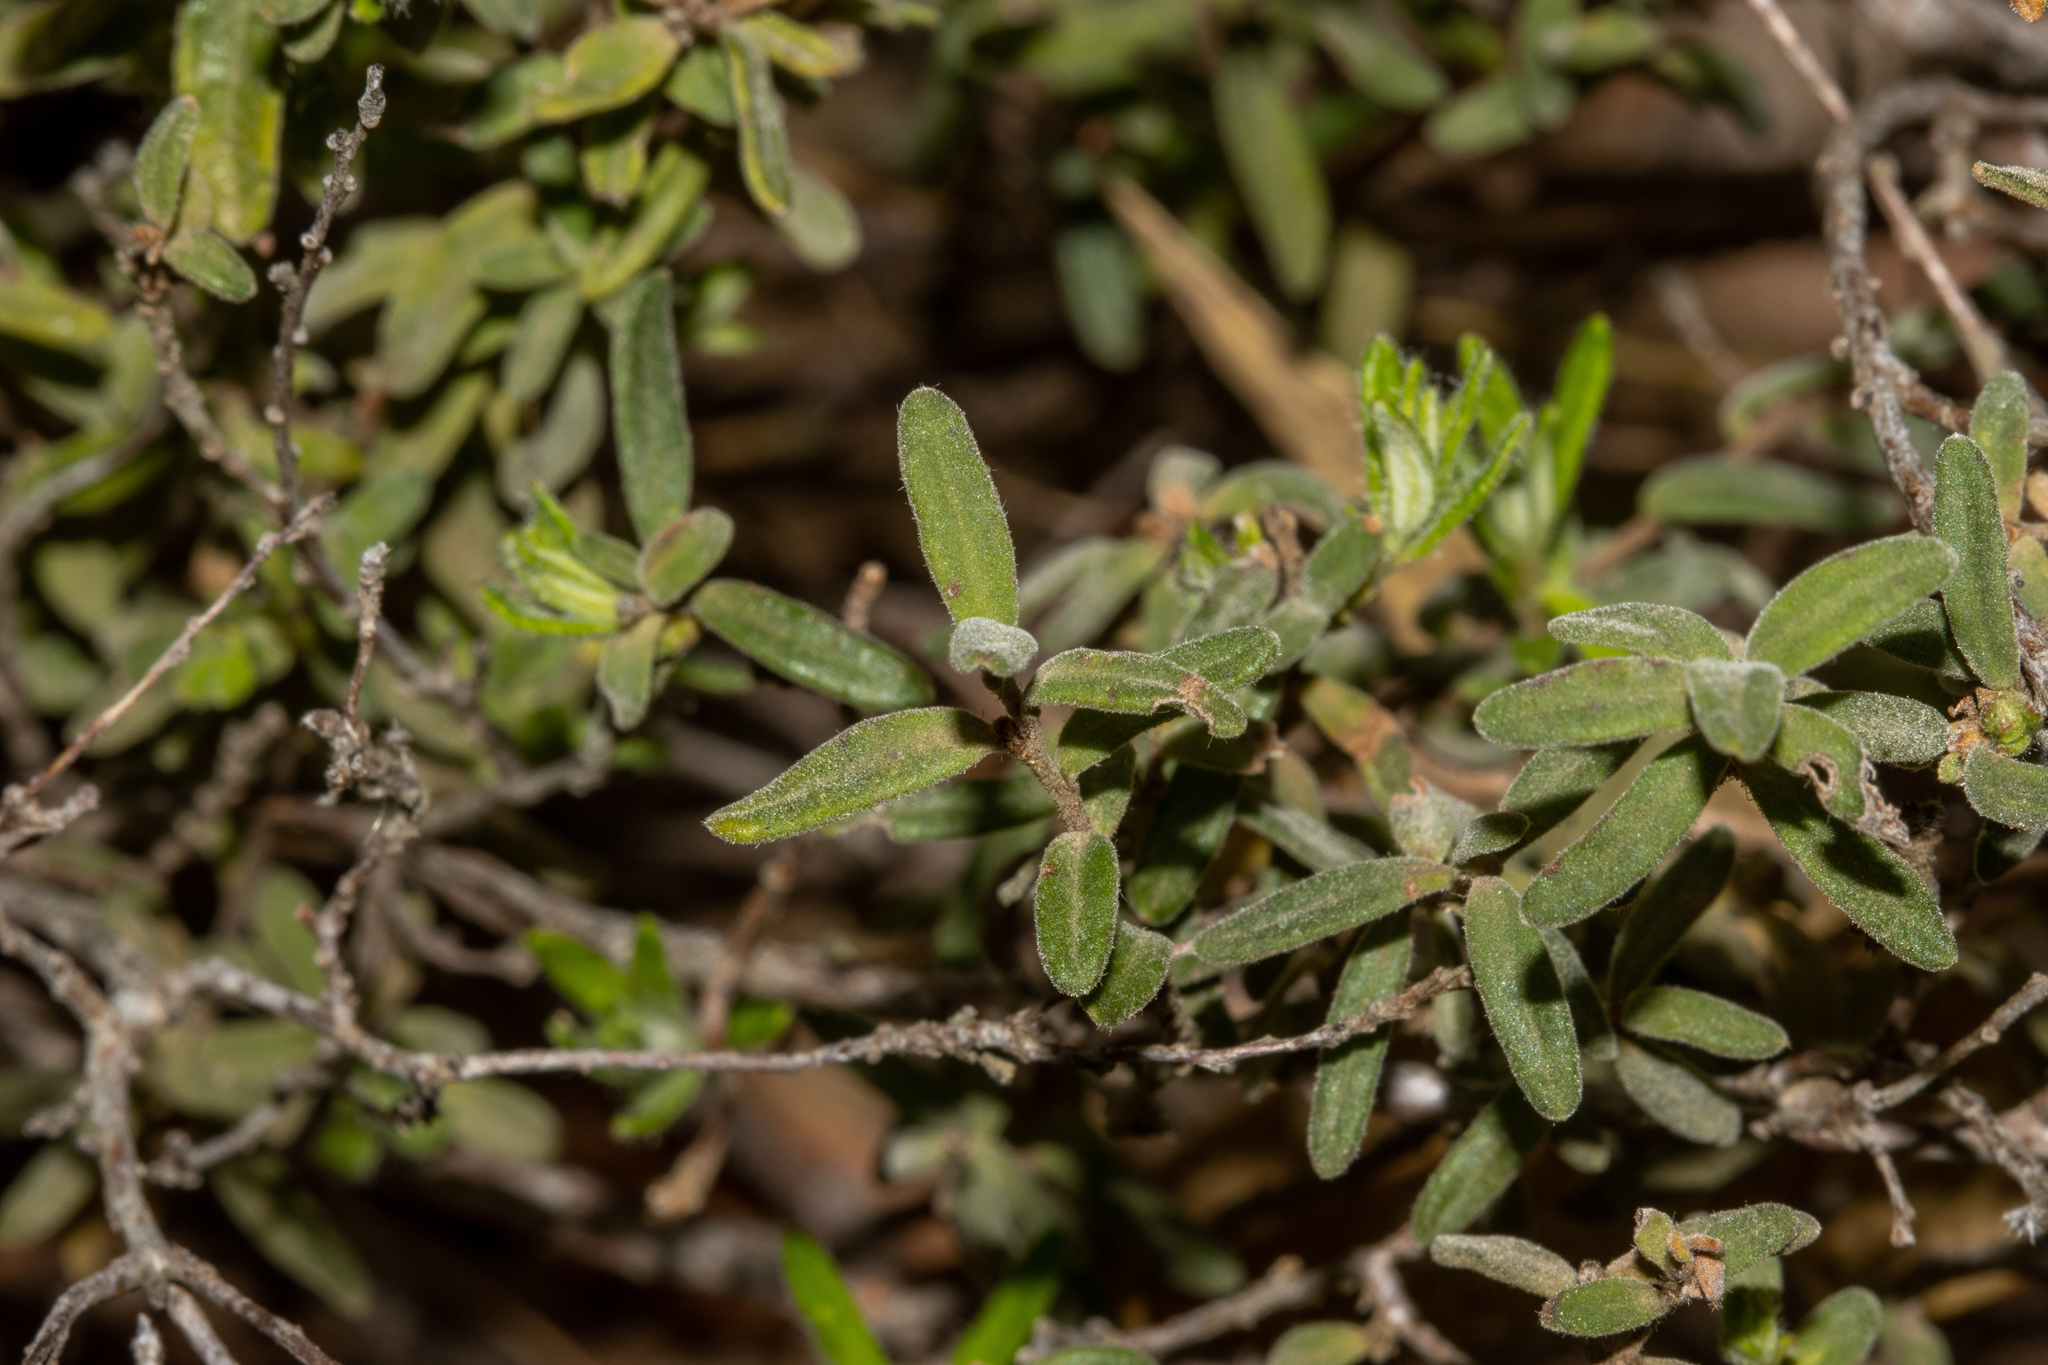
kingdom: Plantae
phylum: Tracheophyta
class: Magnoliopsida
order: Dilleniales
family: Dilleniaceae
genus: Hibbertia
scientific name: Hibbertia crinita
